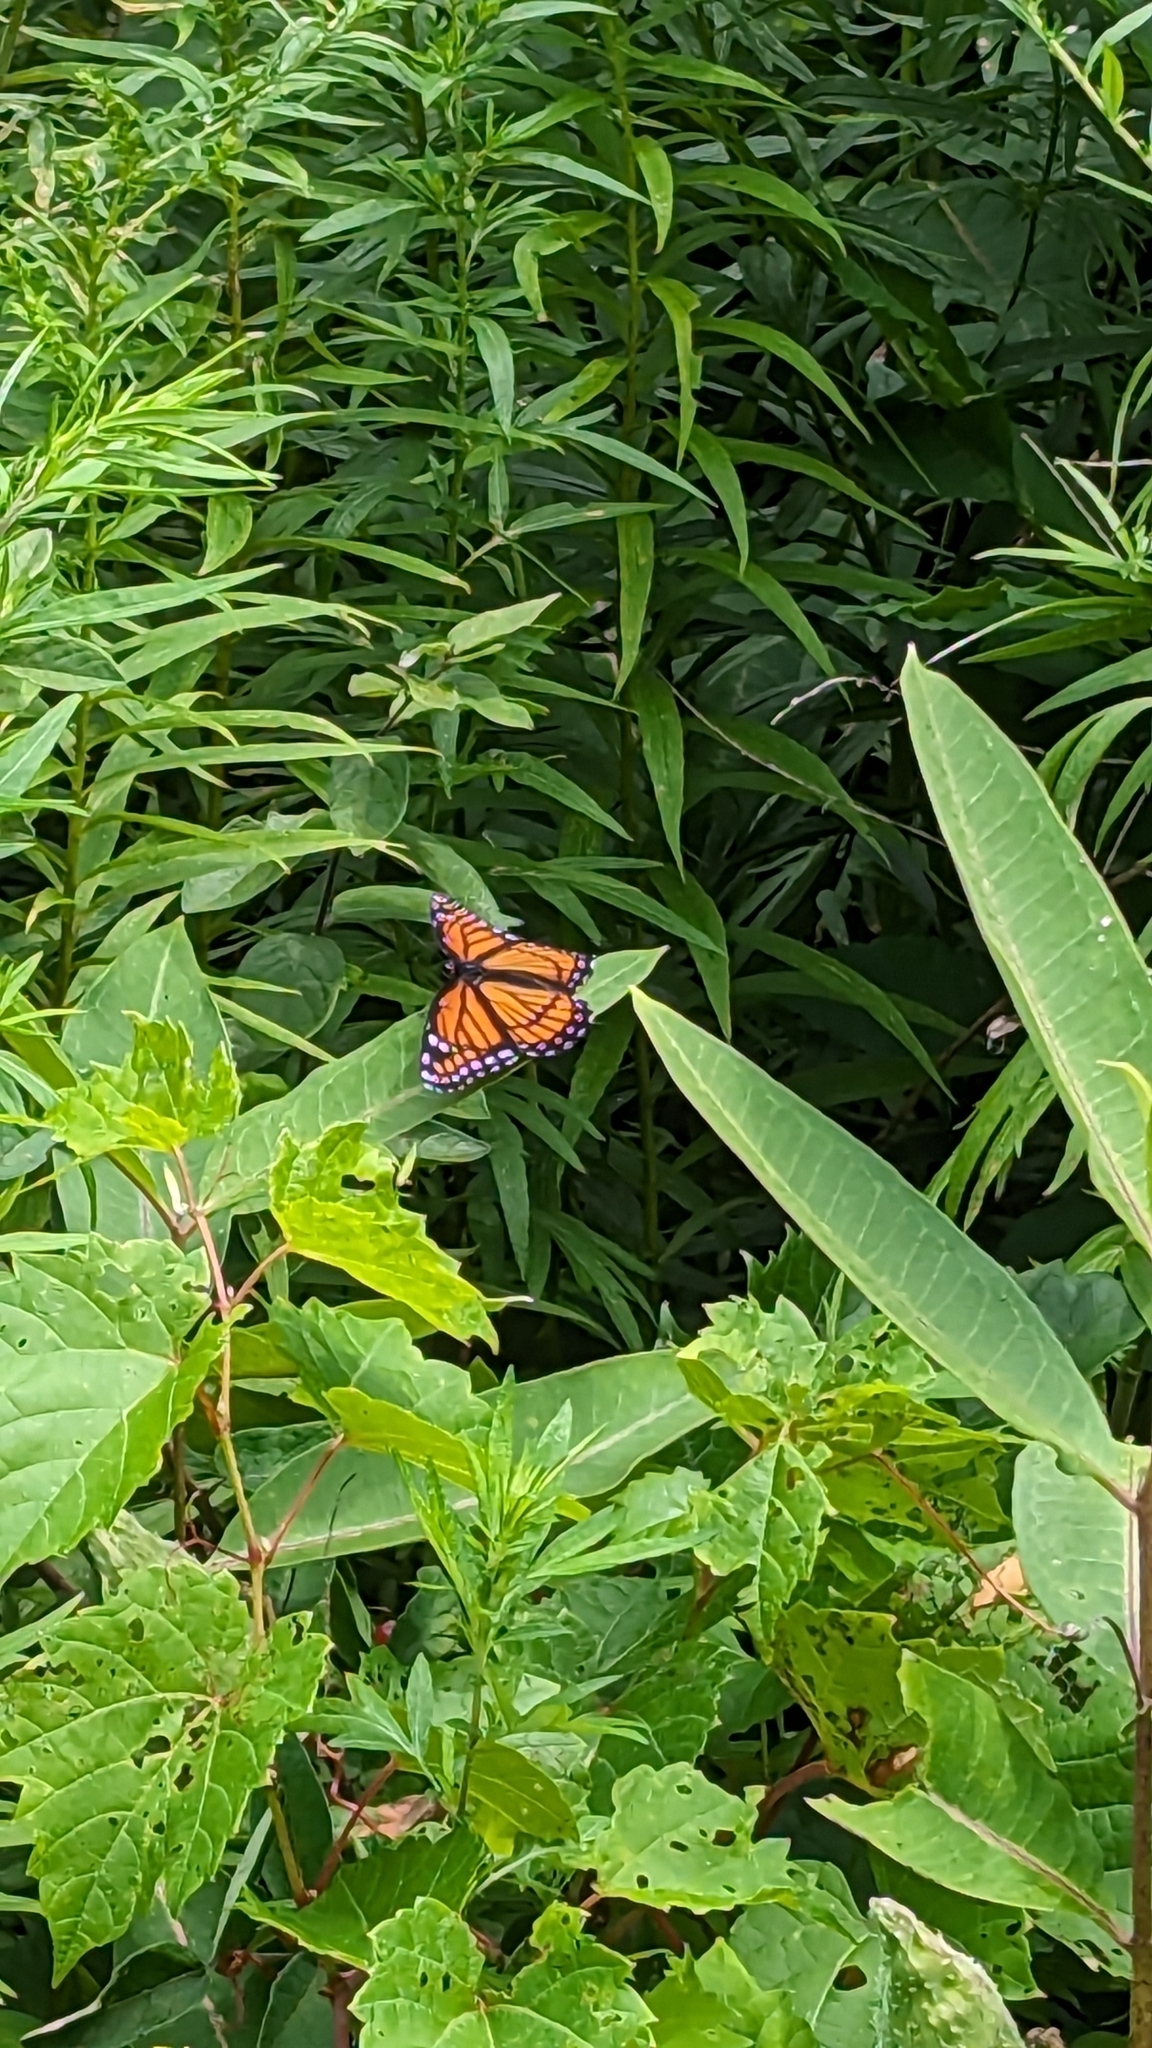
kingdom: Animalia
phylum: Arthropoda
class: Insecta
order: Lepidoptera
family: Nymphalidae
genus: Limenitis
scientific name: Limenitis archippus
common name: Viceroy
